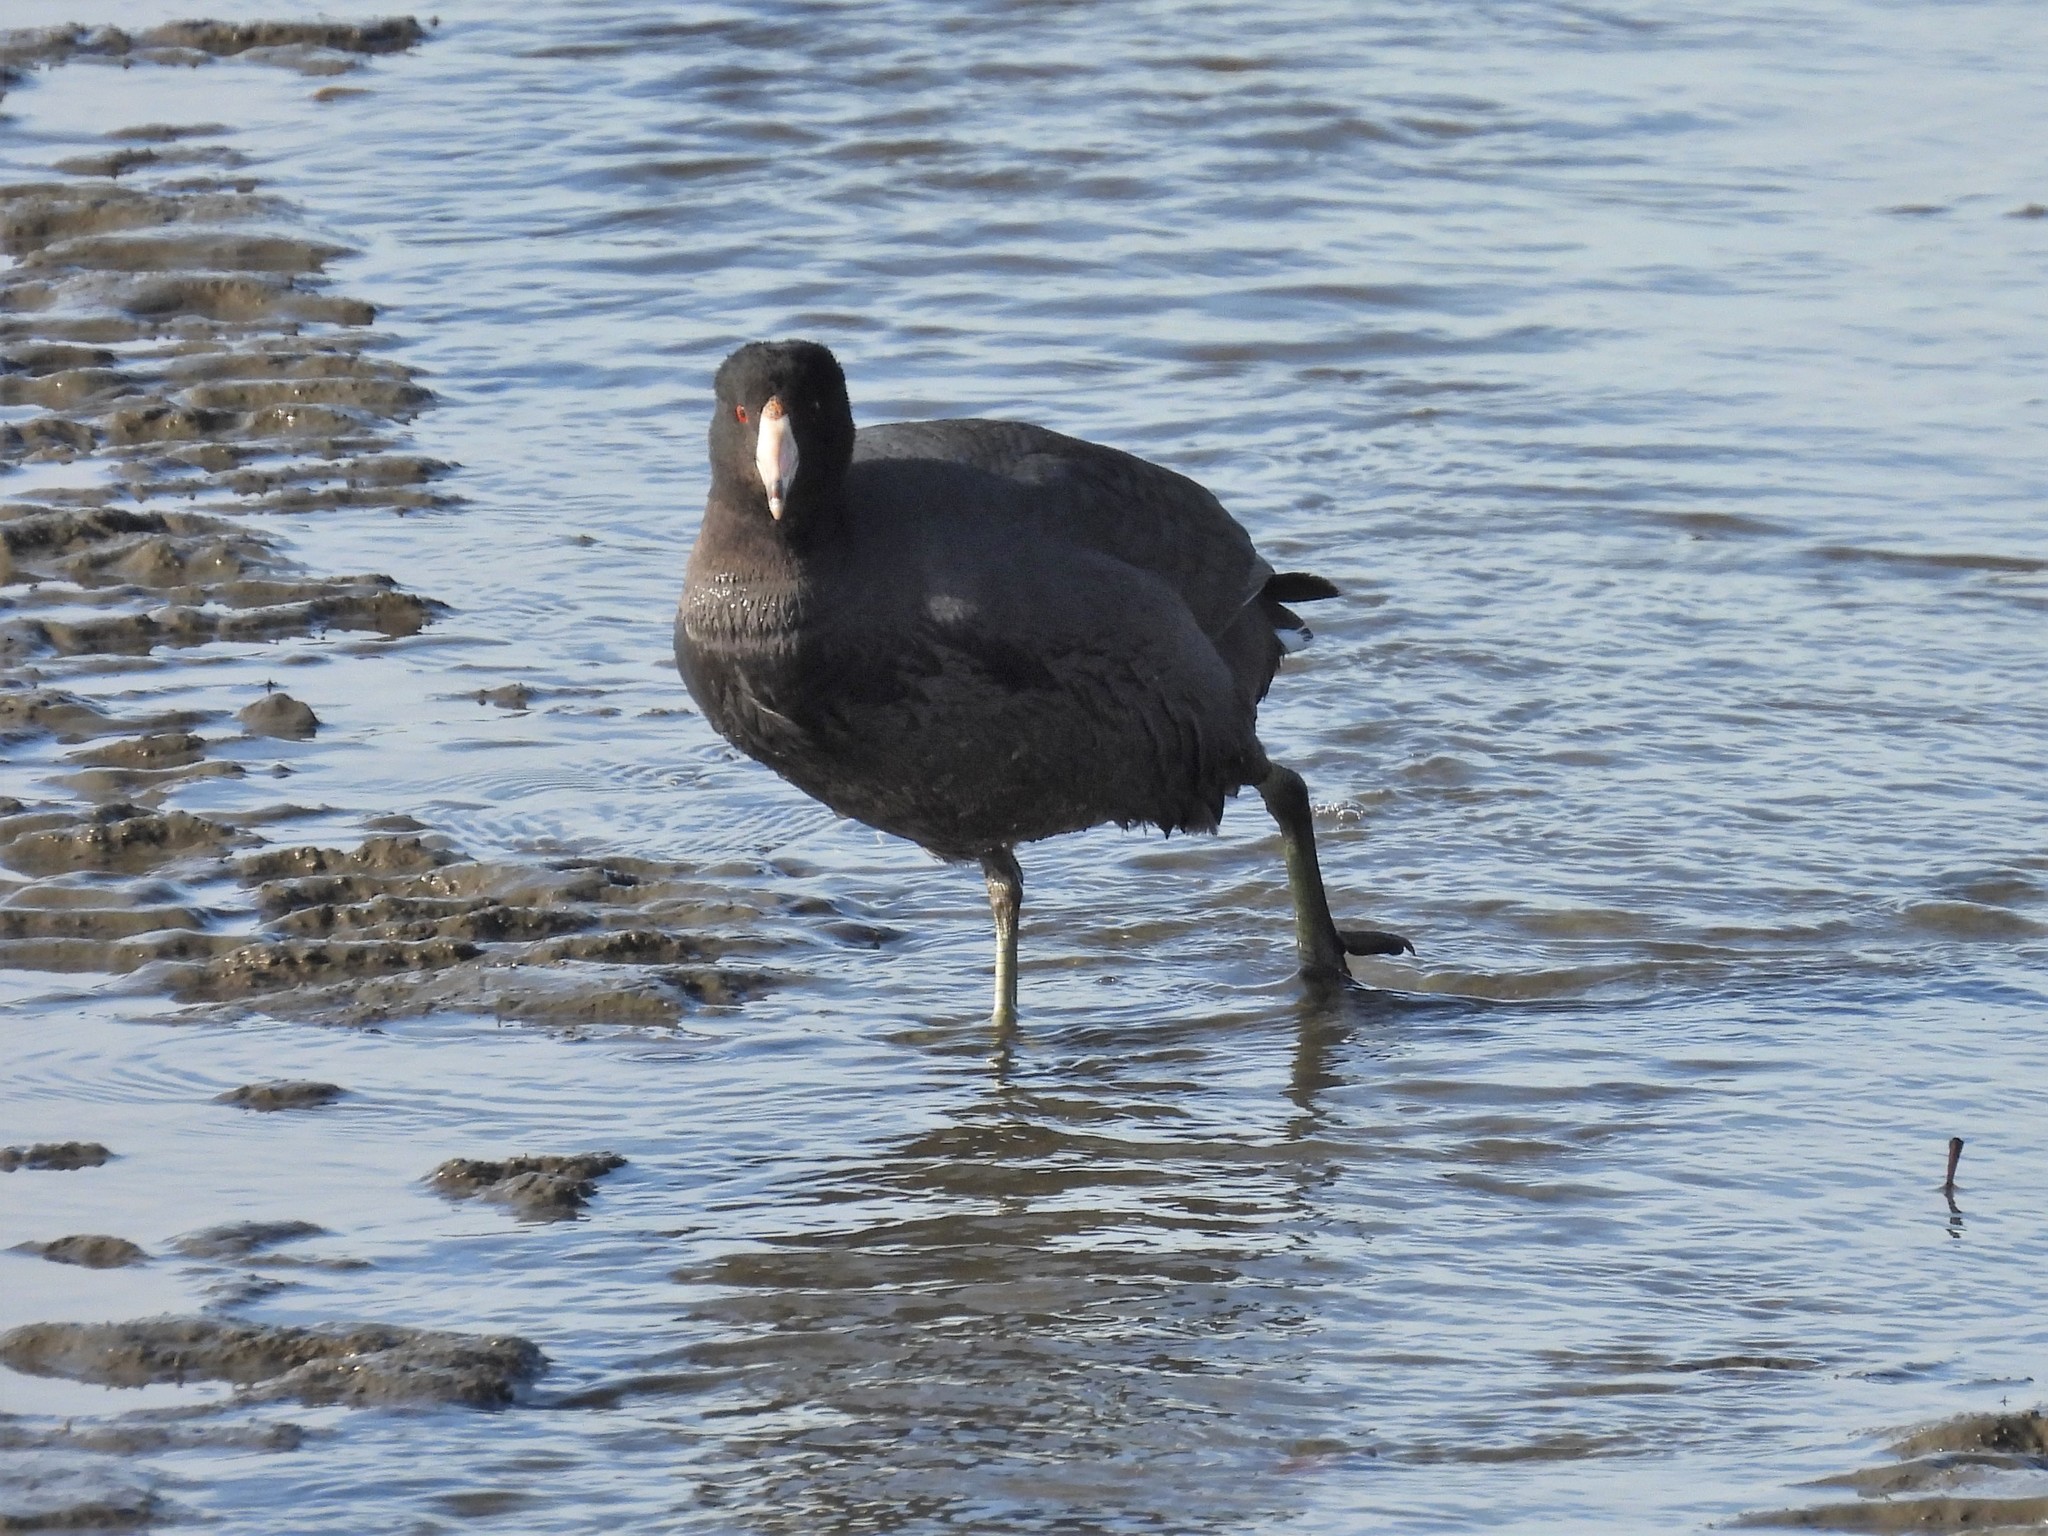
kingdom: Animalia
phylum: Chordata
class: Aves
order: Gruiformes
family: Rallidae
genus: Fulica
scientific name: Fulica americana
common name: American coot
